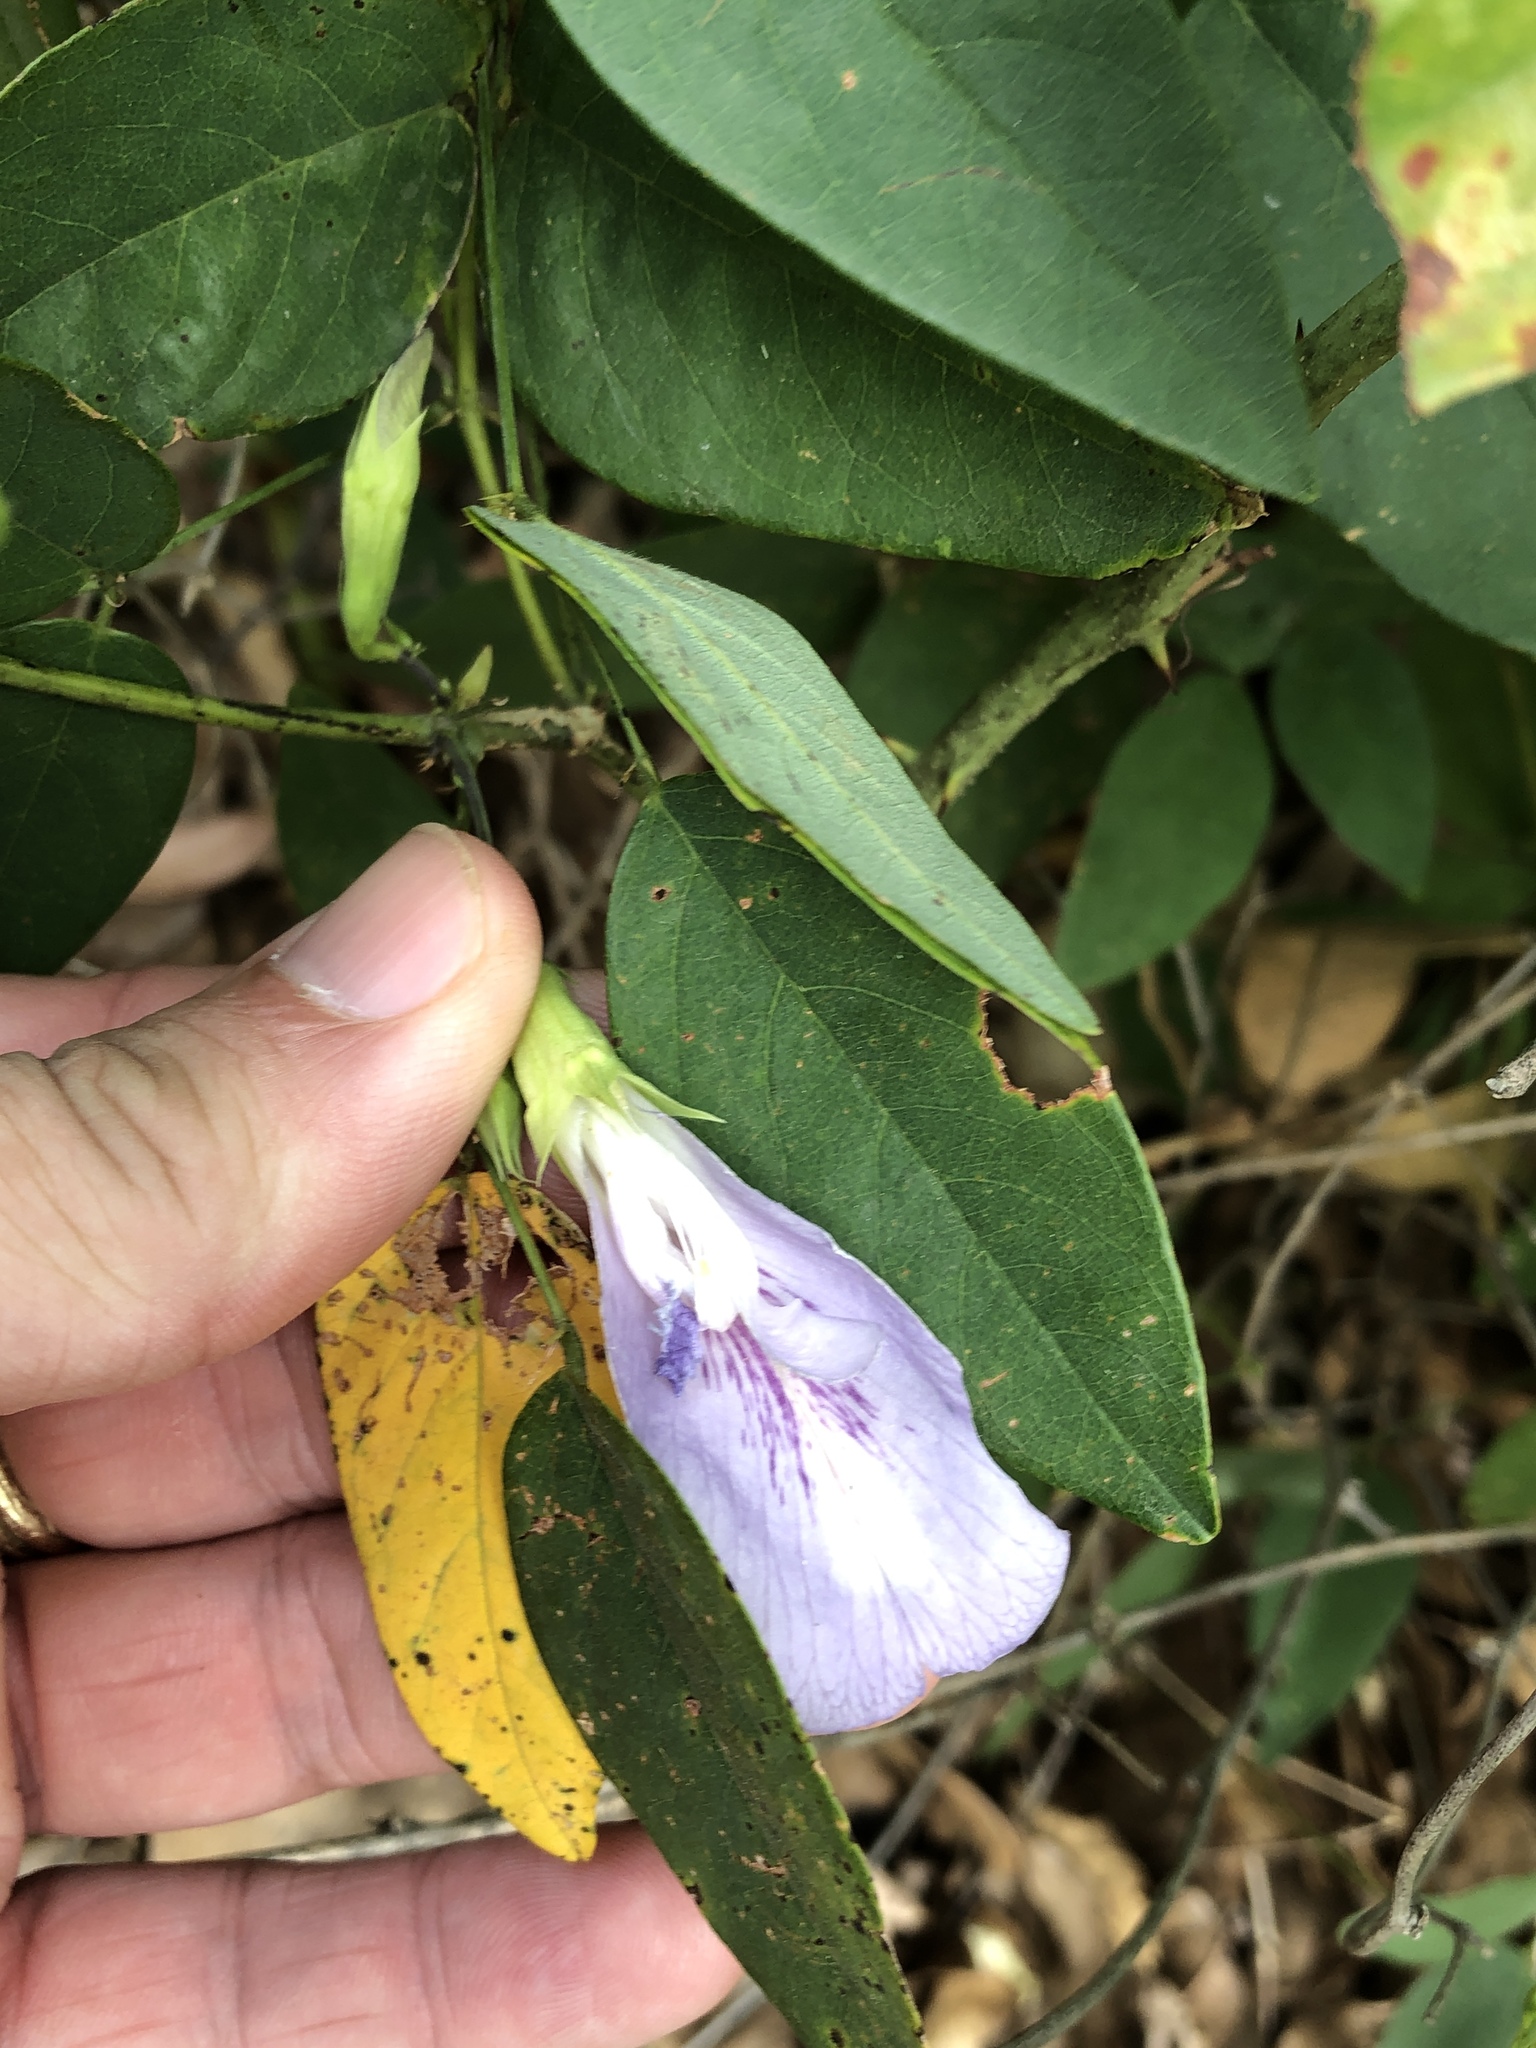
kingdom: Plantae
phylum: Tracheophyta
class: Magnoliopsida
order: Fabales
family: Fabaceae
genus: Clitoria
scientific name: Clitoria mariana
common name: Butterfly-pea
